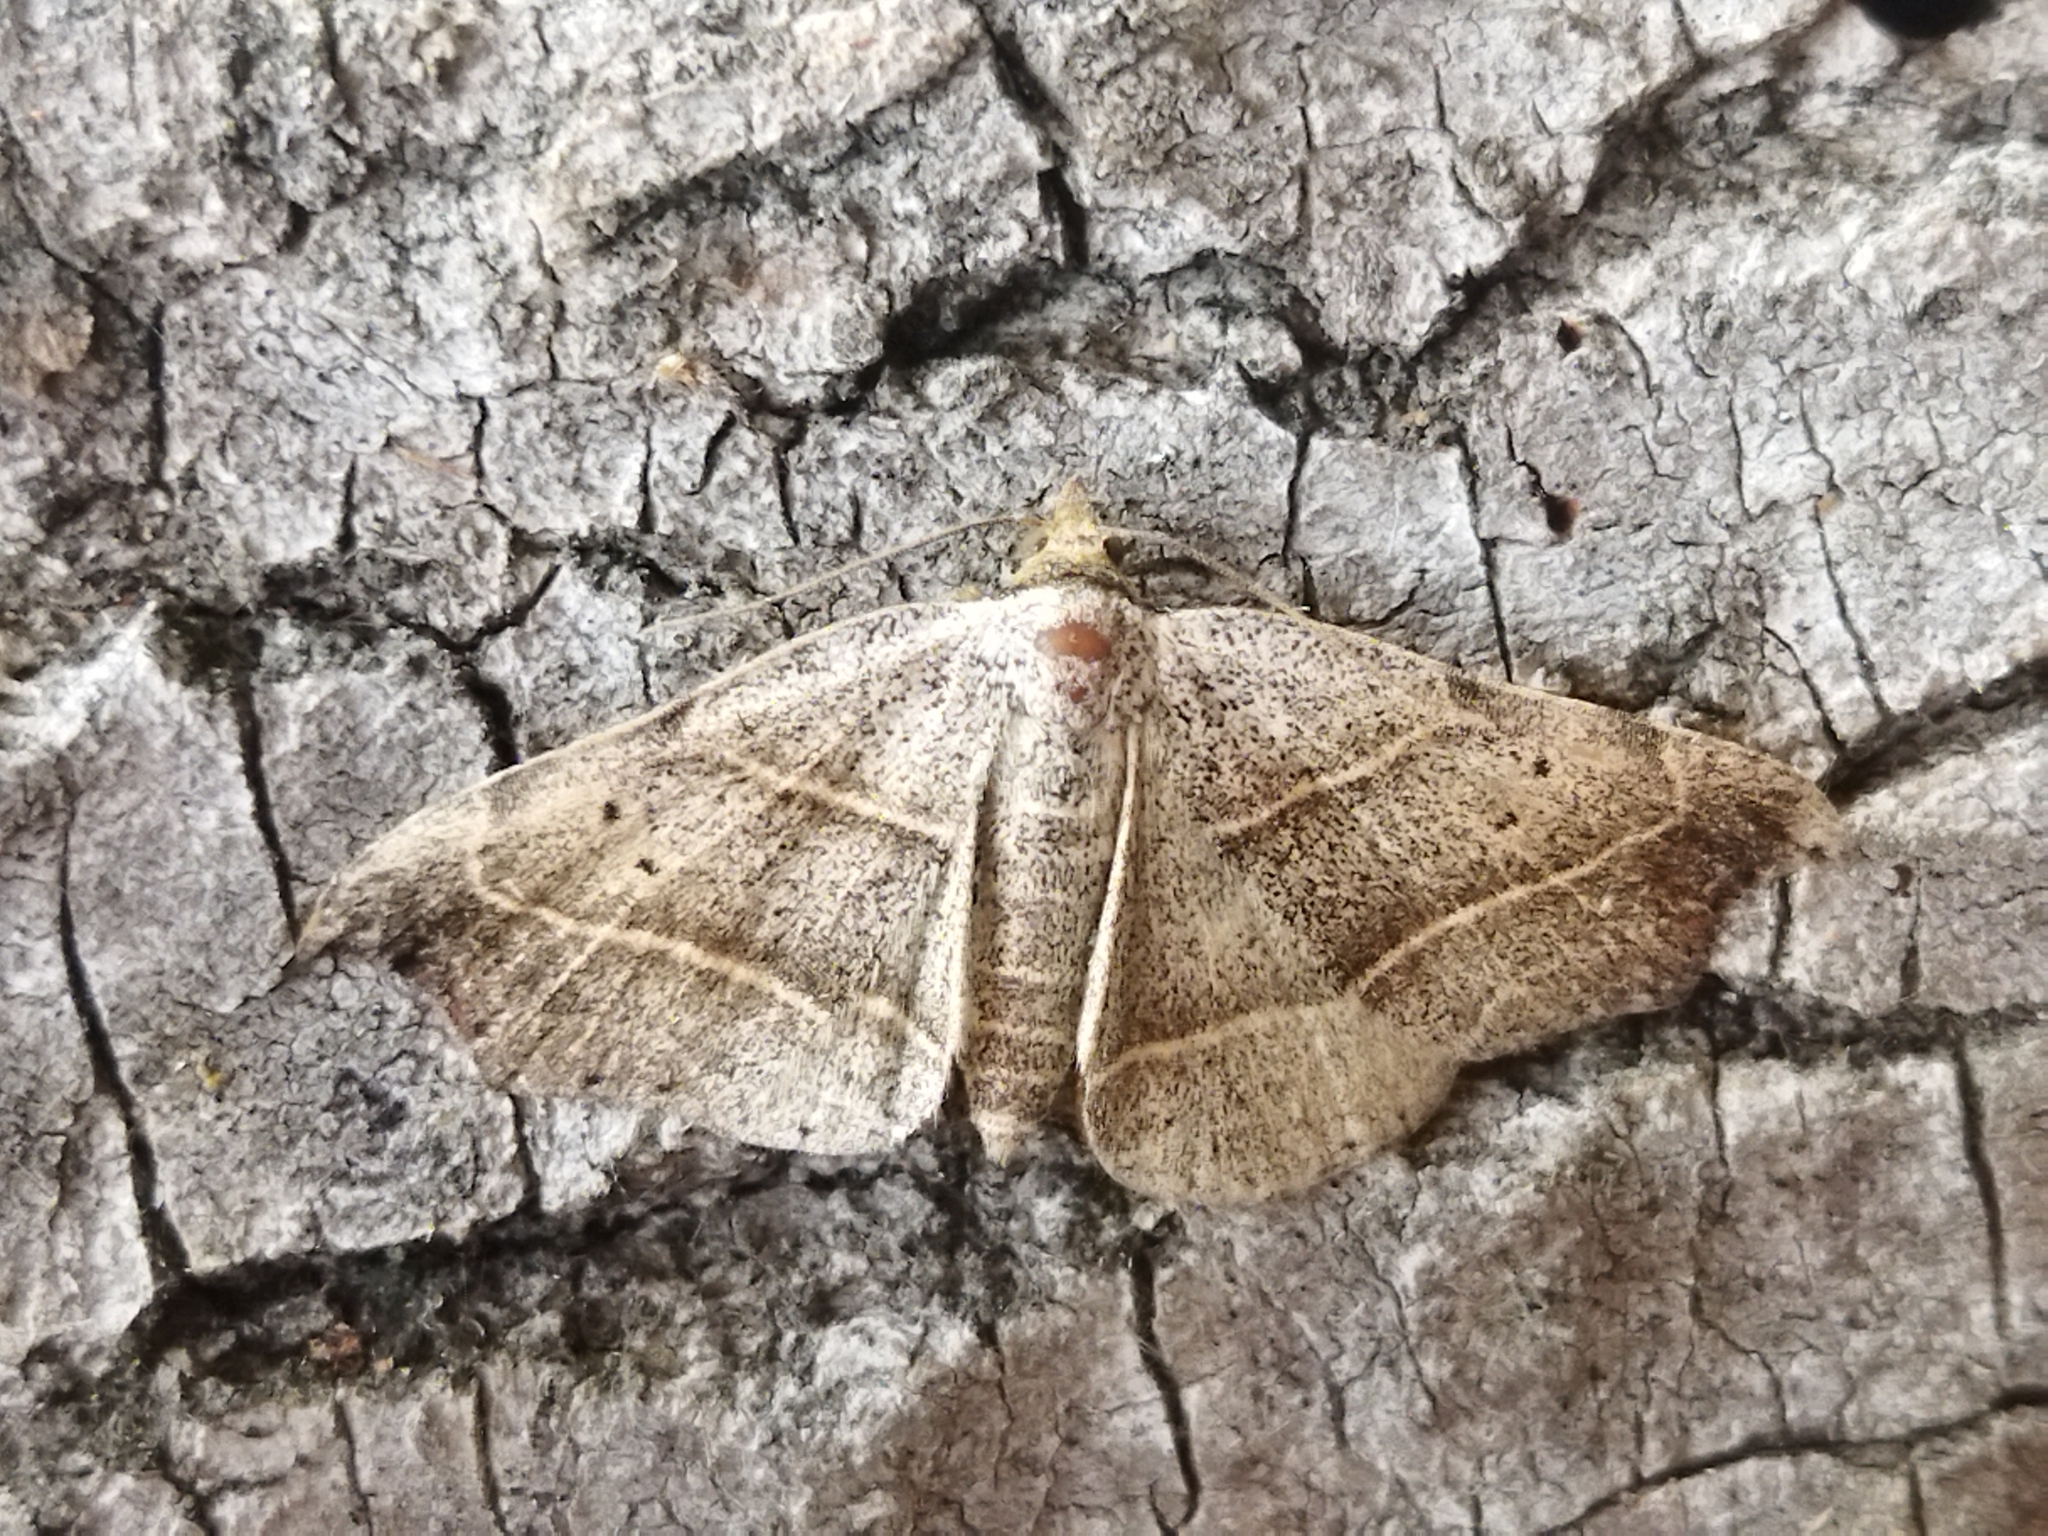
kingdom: Animalia
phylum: Arthropoda
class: Insecta
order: Lepidoptera
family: Erebidae
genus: Laspeyria
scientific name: Laspeyria flexula
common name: Beautiful hook-tip
